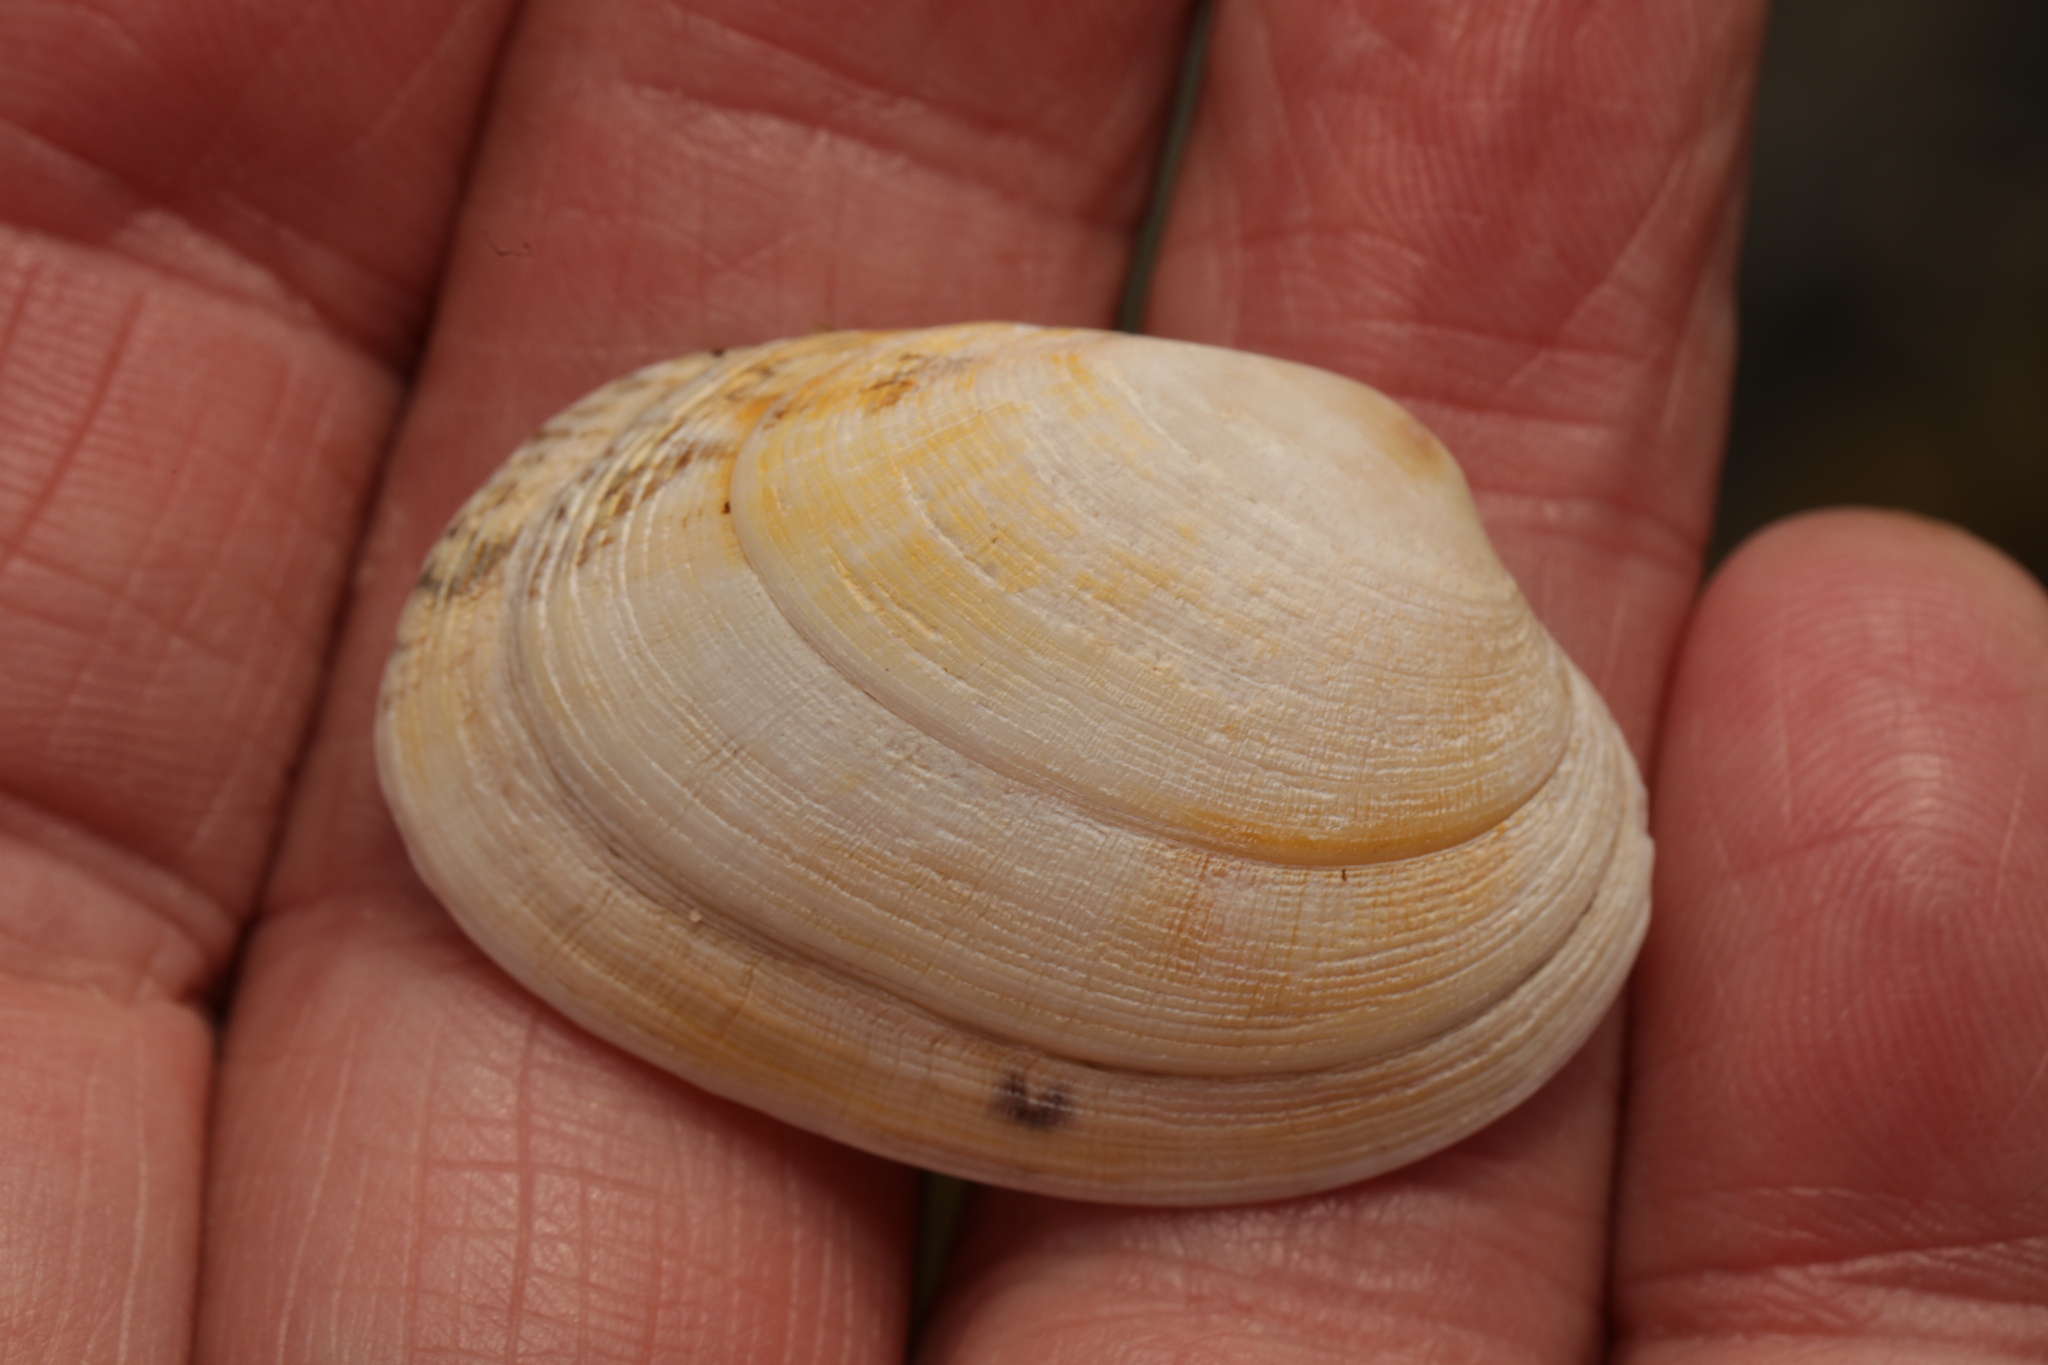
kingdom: Animalia
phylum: Mollusca
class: Bivalvia
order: Venerida
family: Veneridae
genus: Venerupis
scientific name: Venerupis corrugata
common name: Pullet carpet shell
